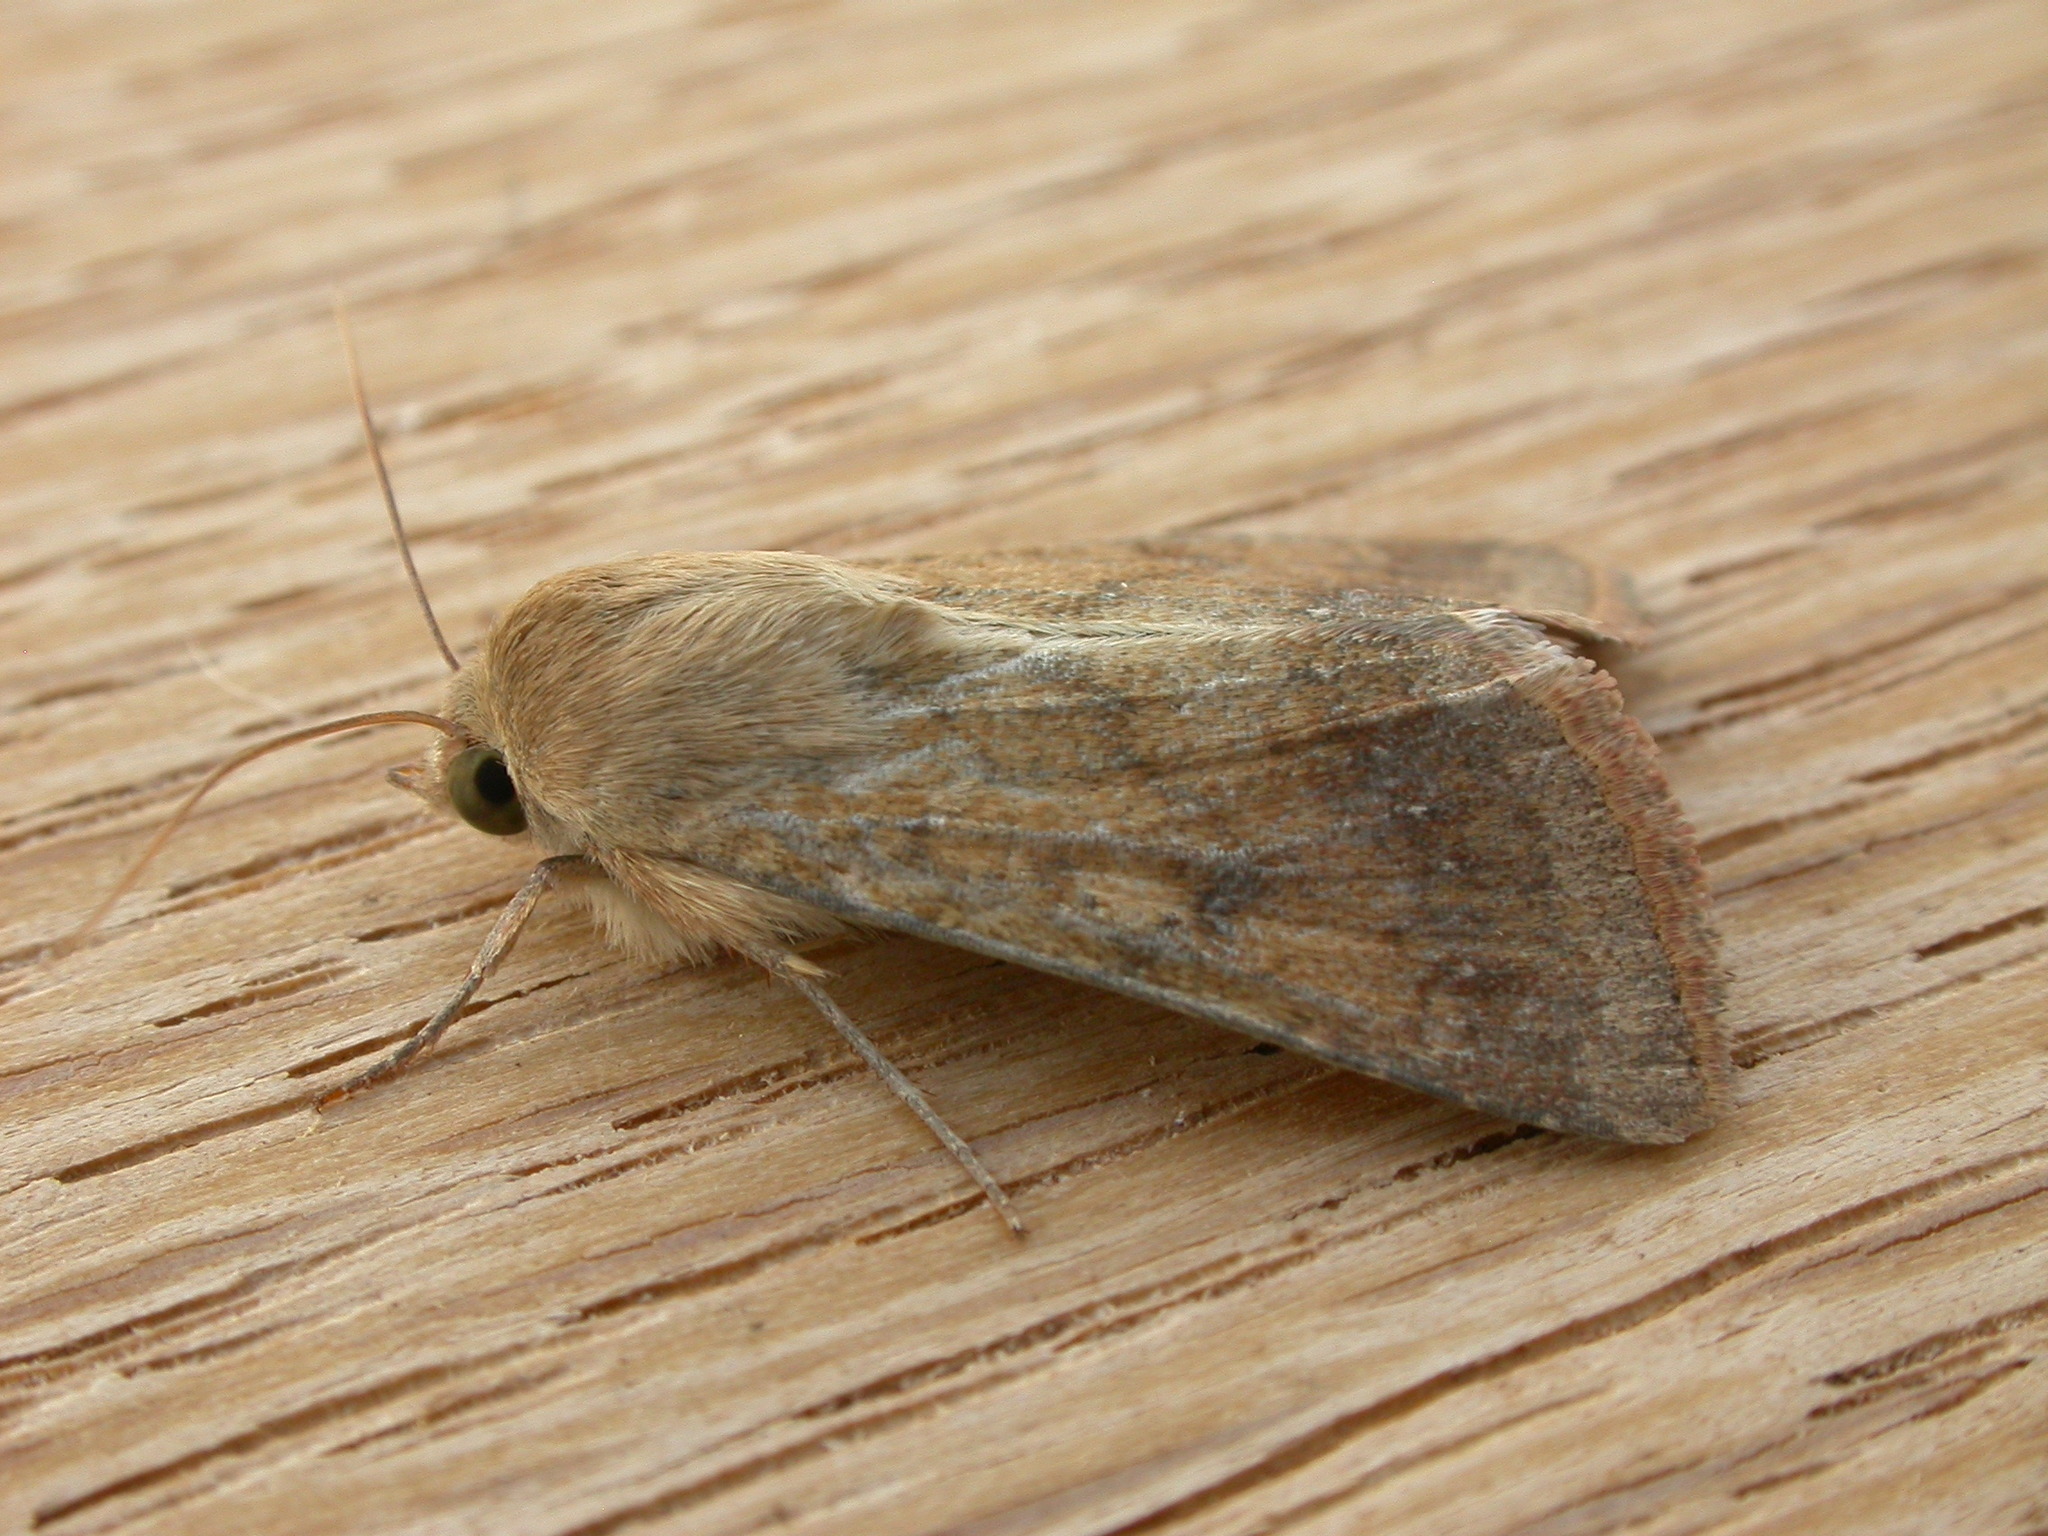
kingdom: Animalia
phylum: Arthropoda
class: Insecta
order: Lepidoptera
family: Noctuidae
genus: Helicoverpa
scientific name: Helicoverpa punctigera
